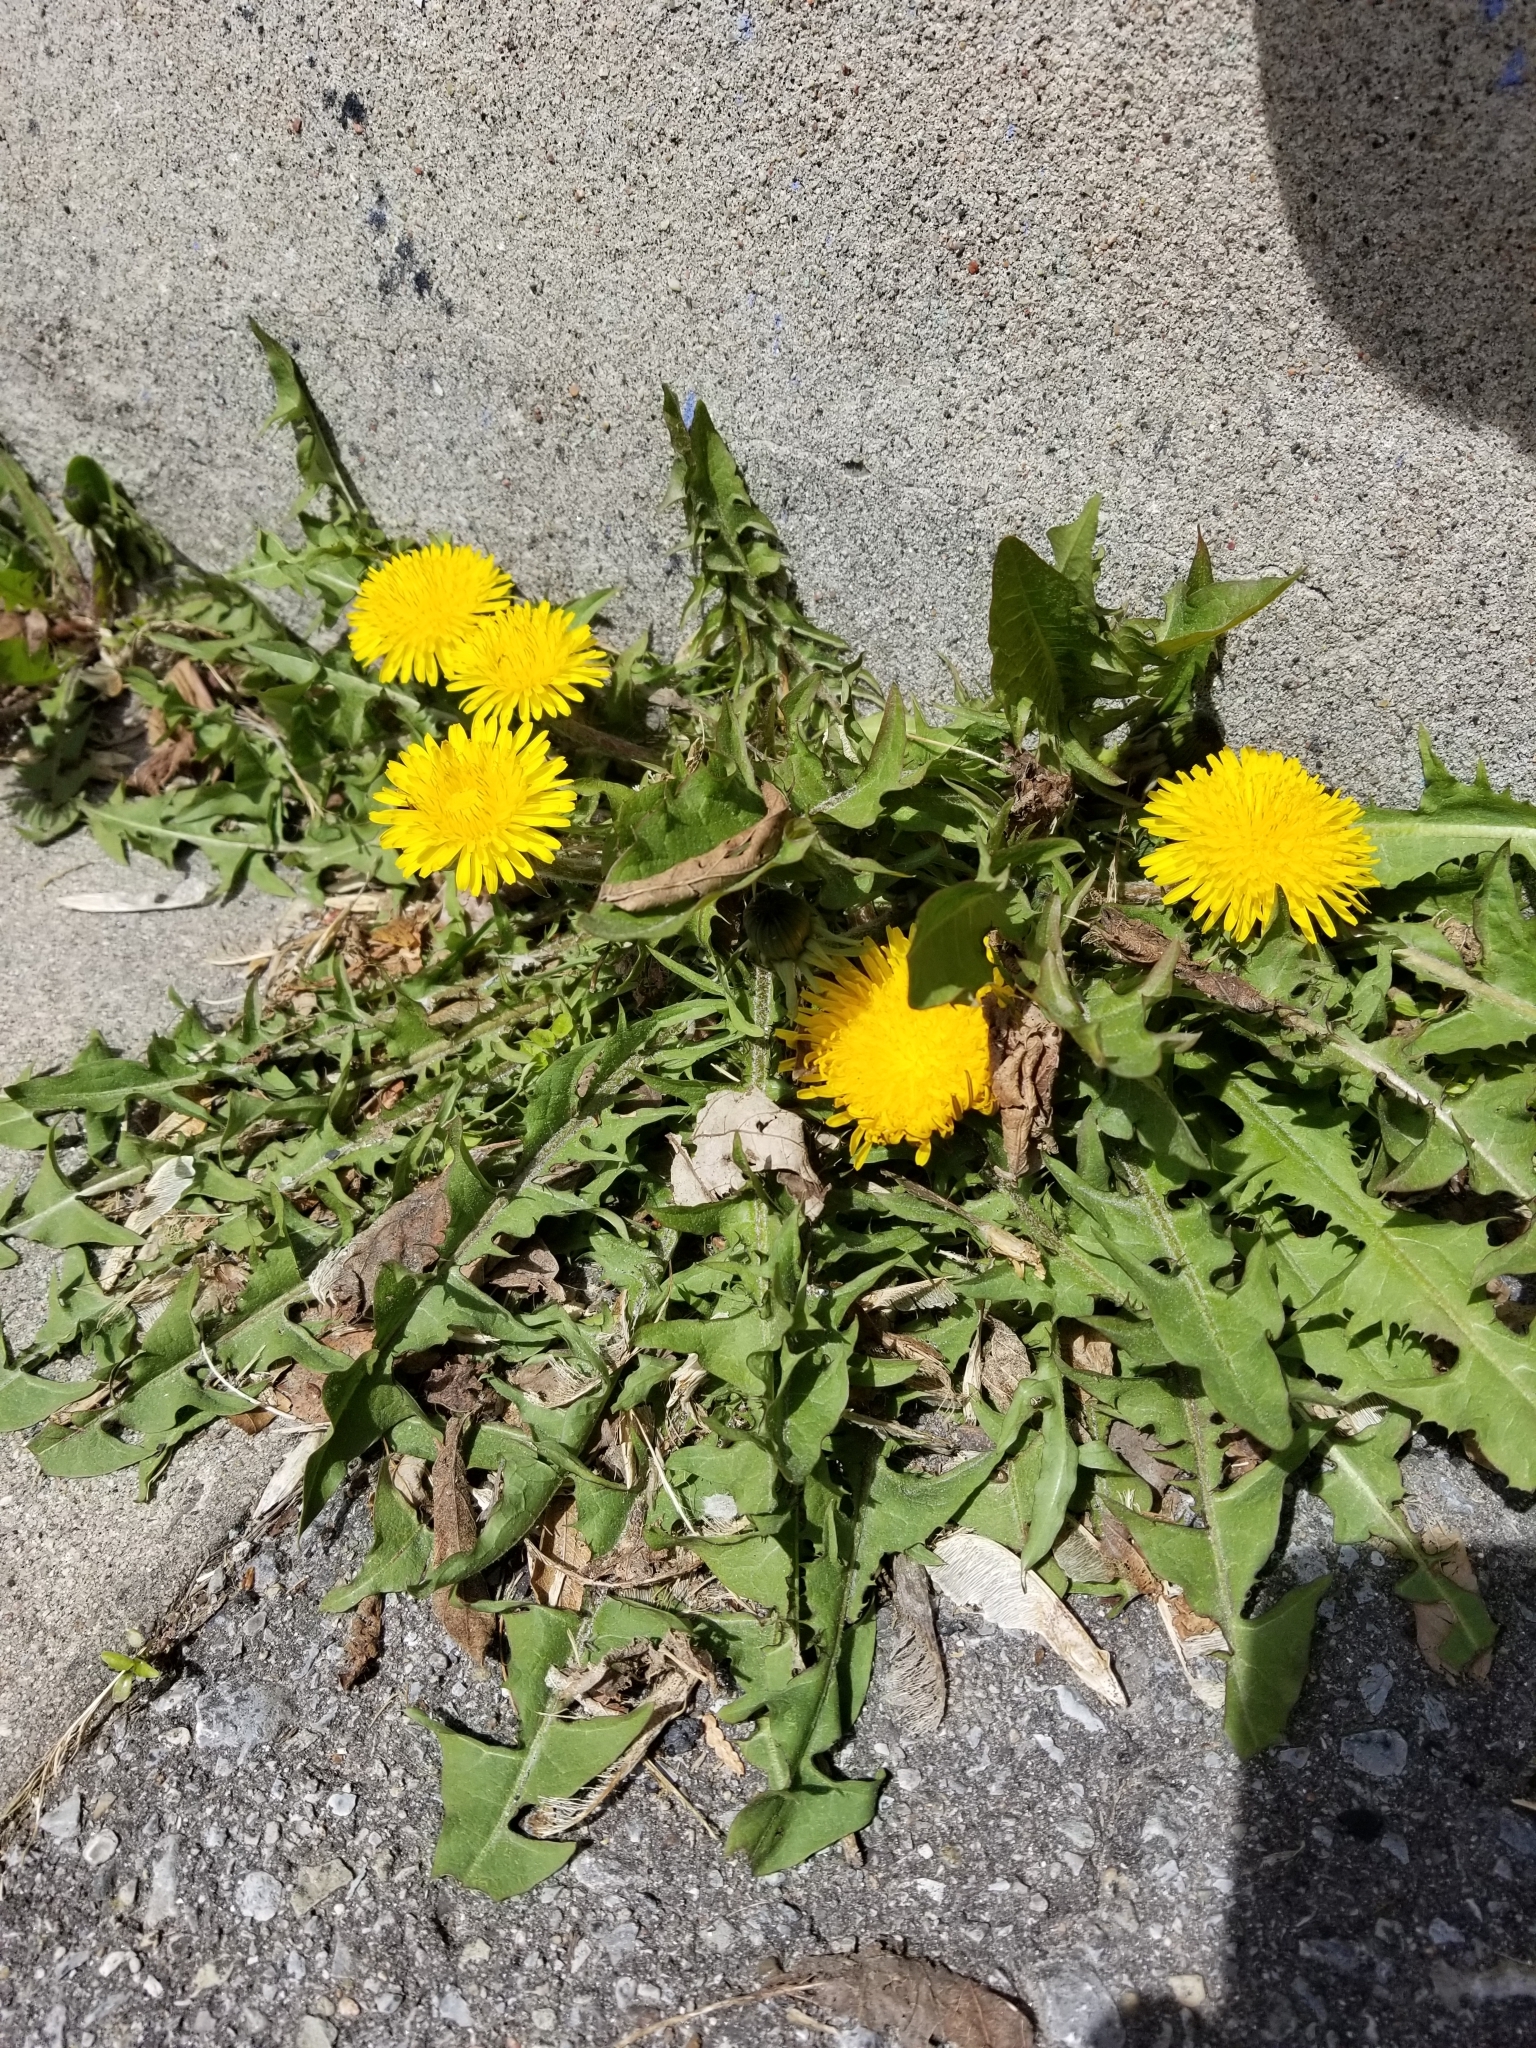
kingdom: Plantae
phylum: Tracheophyta
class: Magnoliopsida
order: Asterales
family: Asteraceae
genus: Taraxacum
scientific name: Taraxacum officinale
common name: Common dandelion
